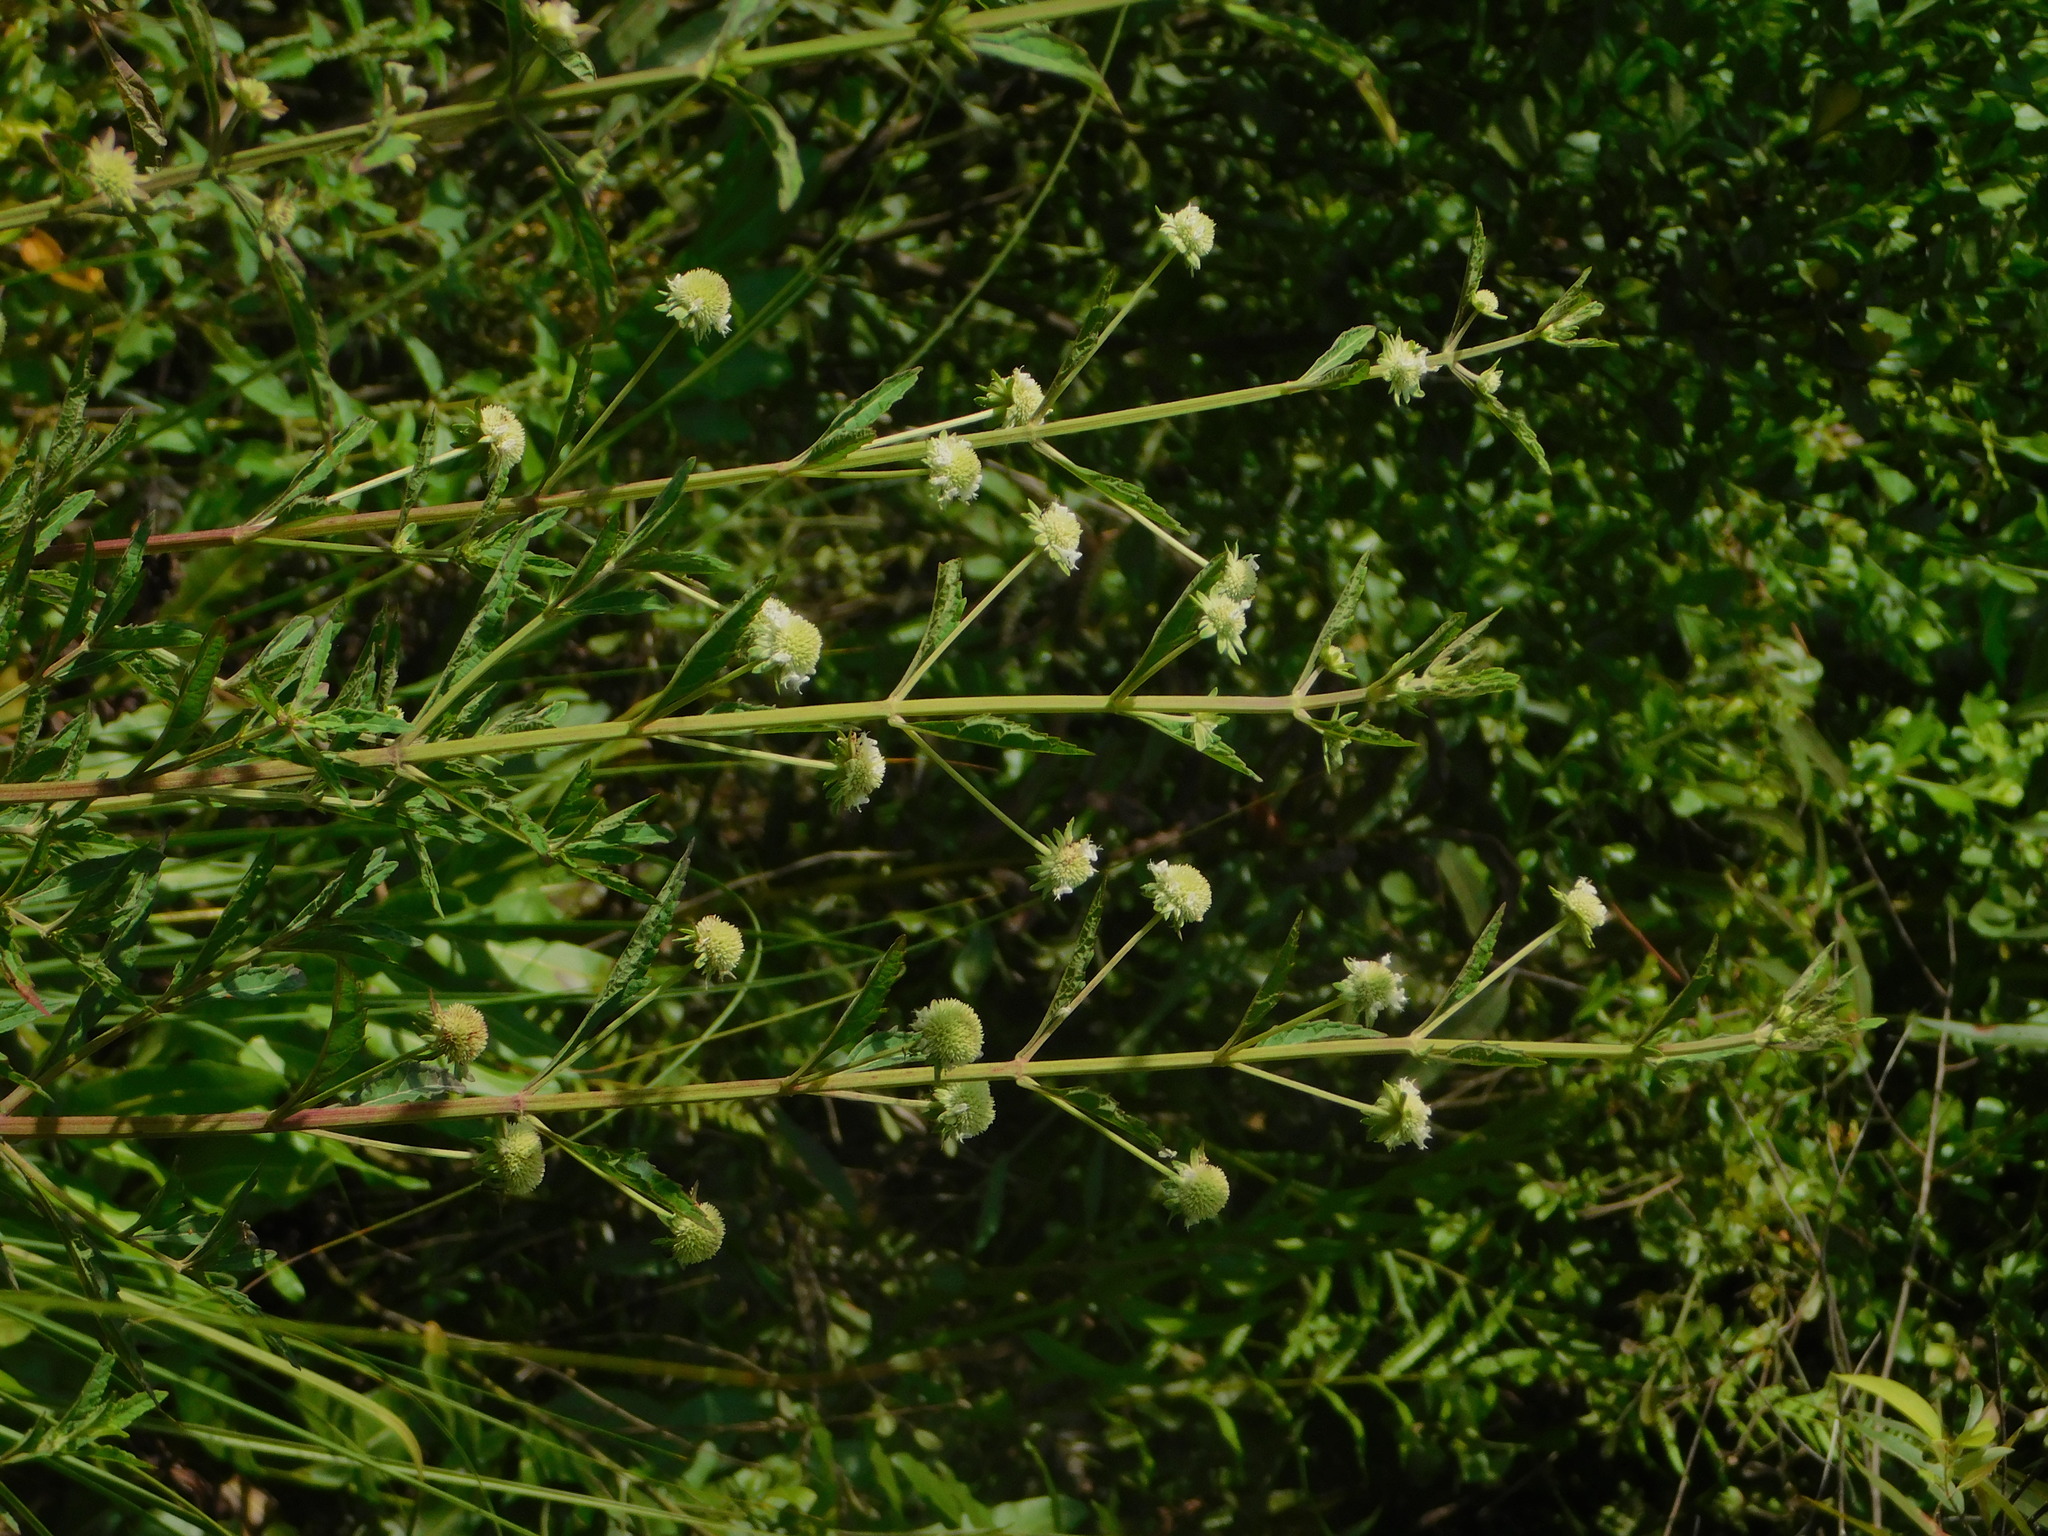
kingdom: Plantae
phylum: Tracheophyta
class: Magnoliopsida
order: Lamiales
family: Lamiaceae
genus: Hyptis
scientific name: Hyptis alata
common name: Cluster bush-mint
